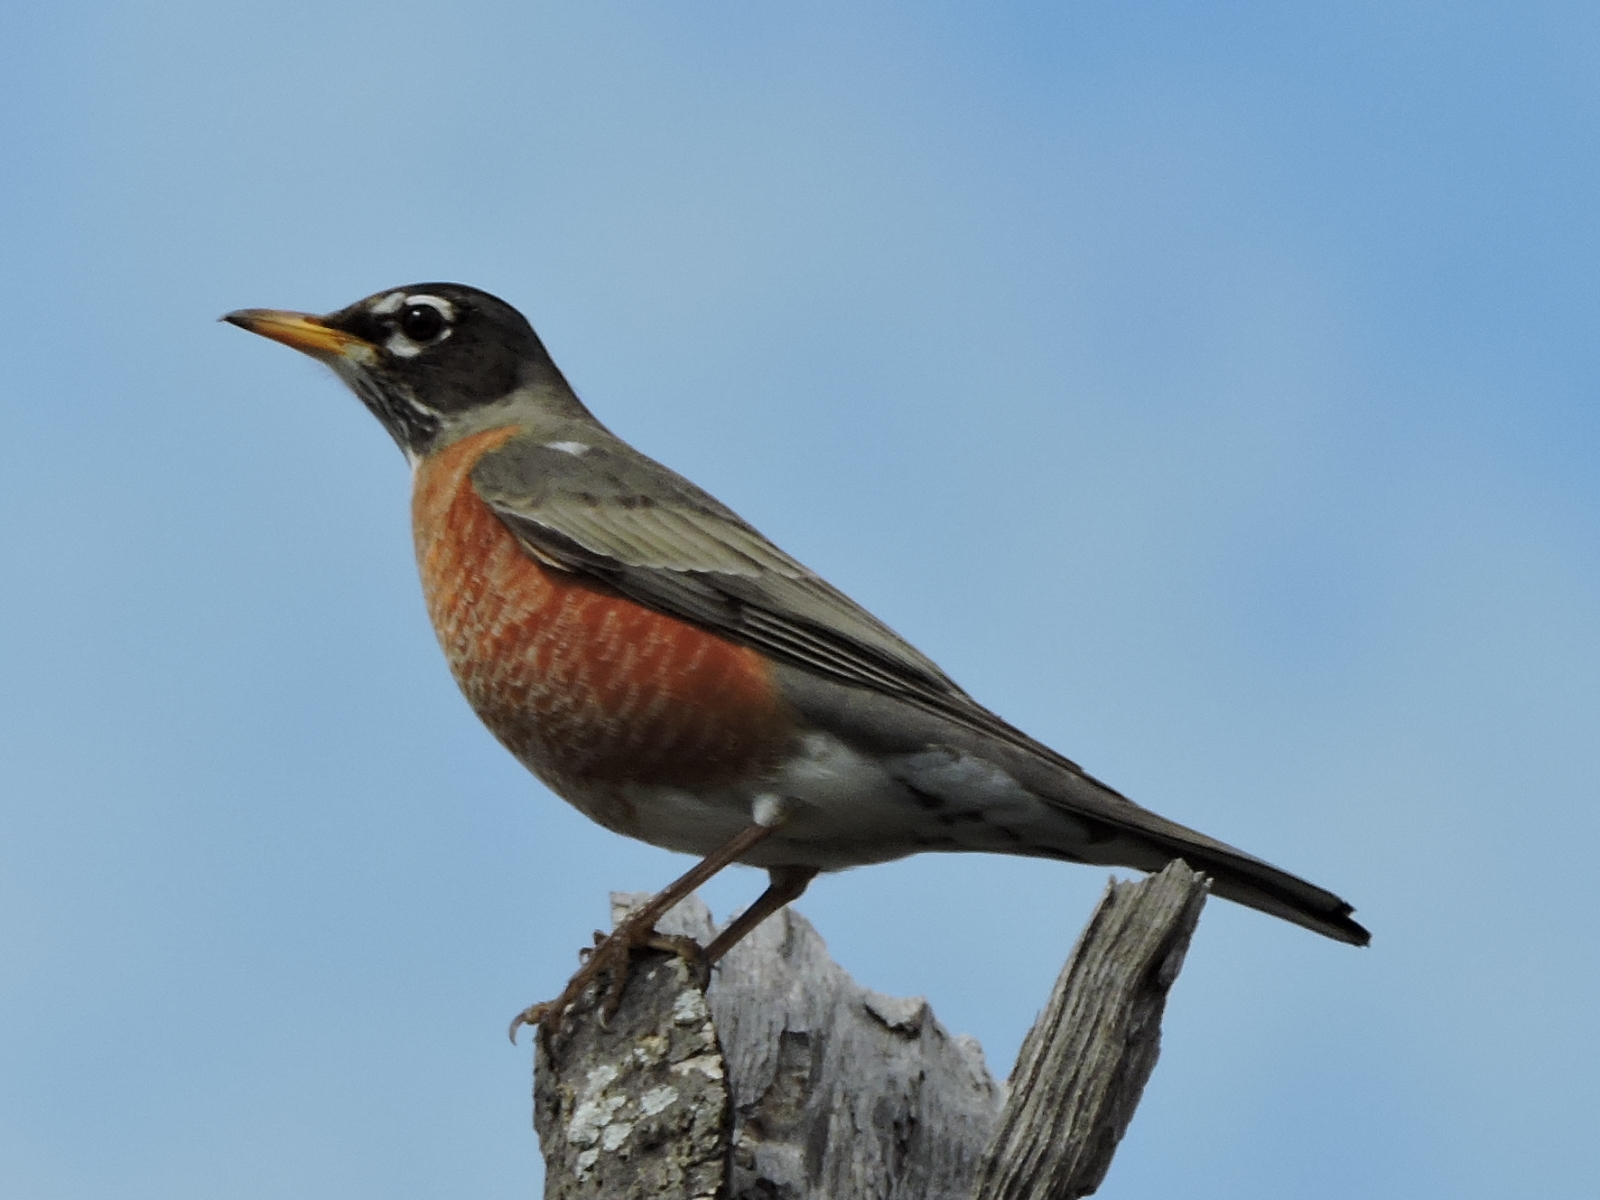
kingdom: Animalia
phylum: Chordata
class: Aves
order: Passeriformes
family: Turdidae
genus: Turdus
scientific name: Turdus migratorius
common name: American robin
